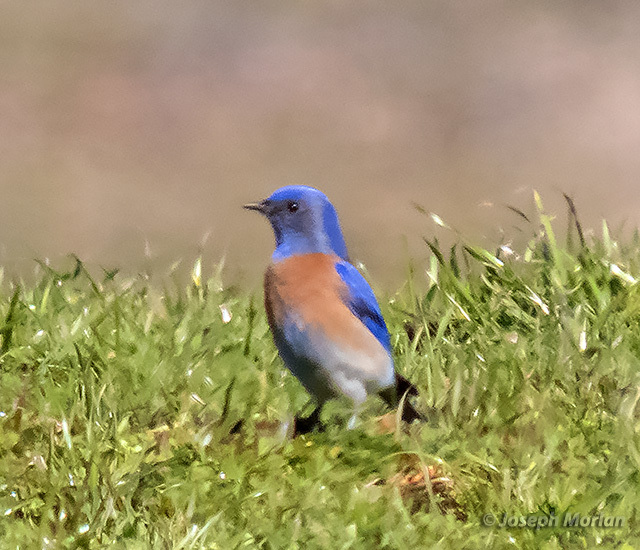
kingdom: Animalia
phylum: Chordata
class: Aves
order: Passeriformes
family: Turdidae
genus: Sialia
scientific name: Sialia mexicana
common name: Western bluebird
